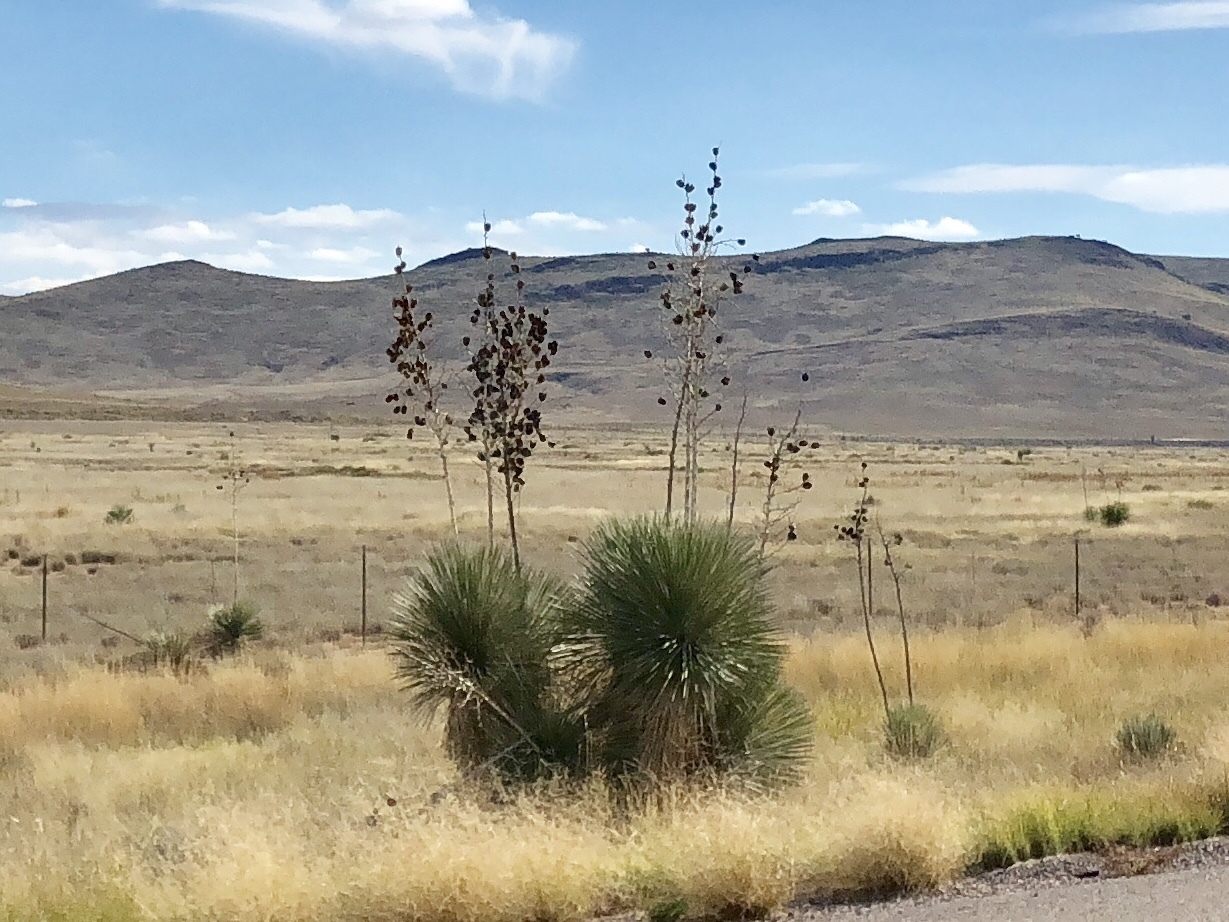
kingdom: Plantae
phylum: Tracheophyta
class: Liliopsida
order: Asparagales
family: Asparagaceae
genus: Yucca
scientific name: Yucca elata
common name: Palmella
